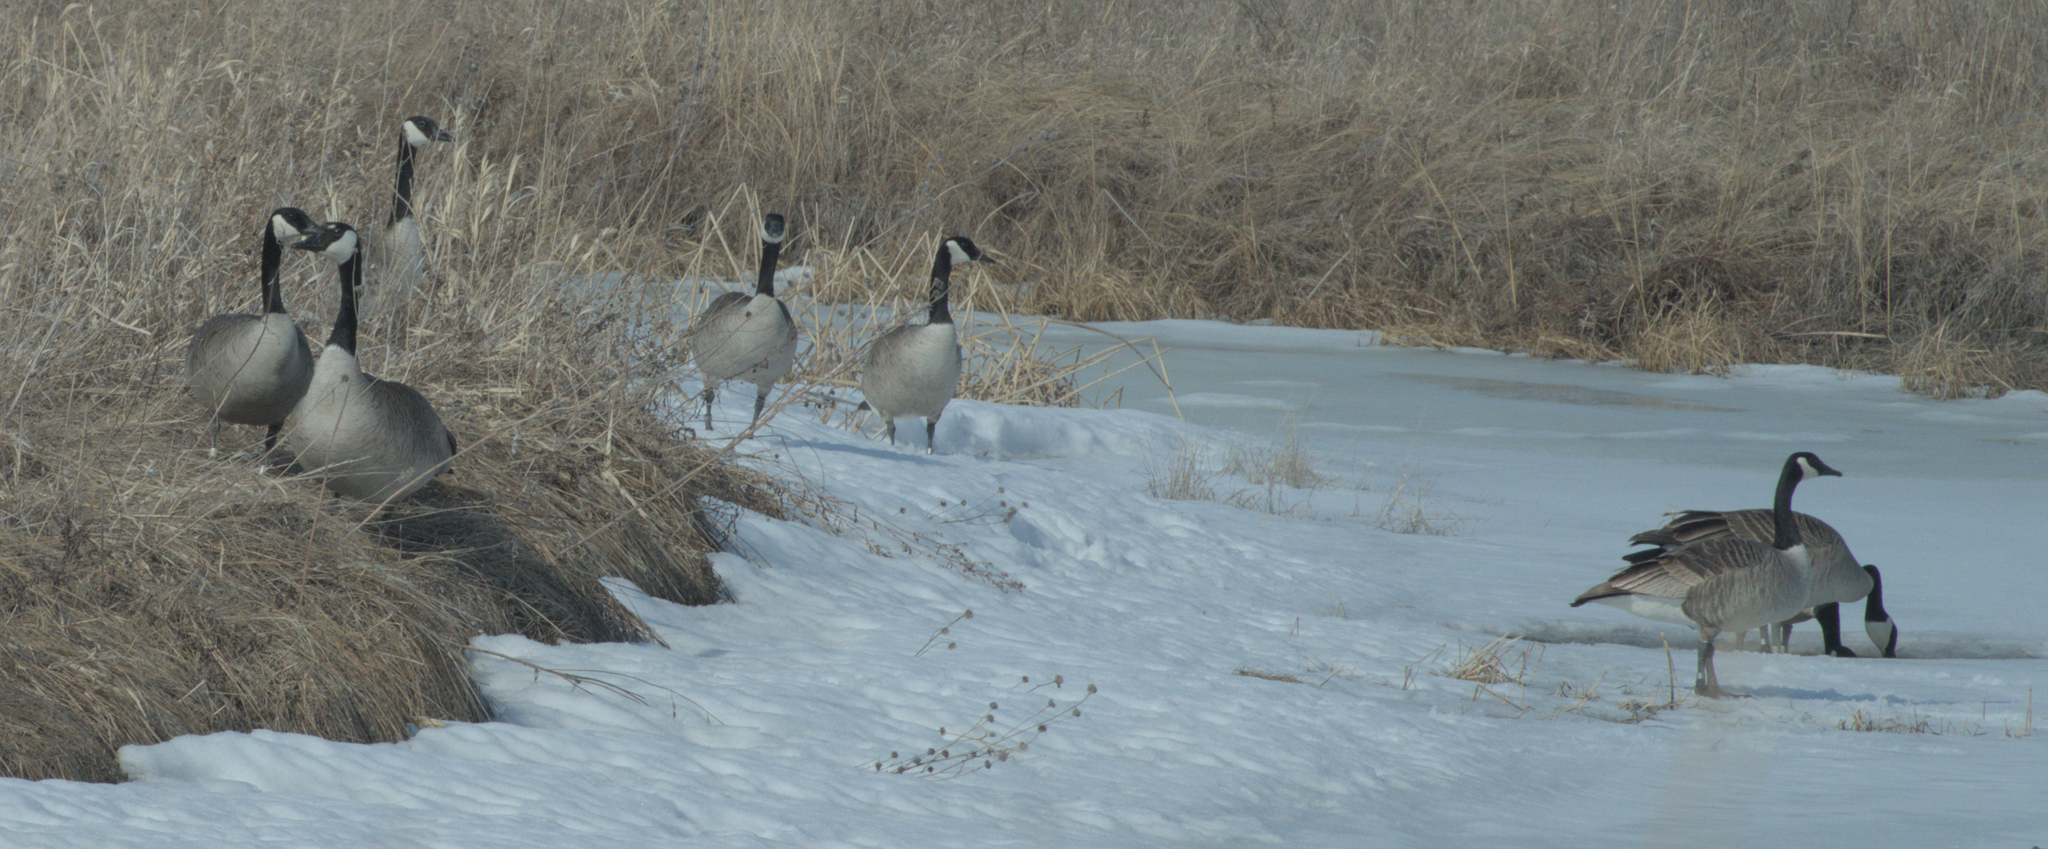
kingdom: Animalia
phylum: Chordata
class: Aves
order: Anseriformes
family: Anatidae
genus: Branta
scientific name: Branta canadensis
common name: Canada goose
